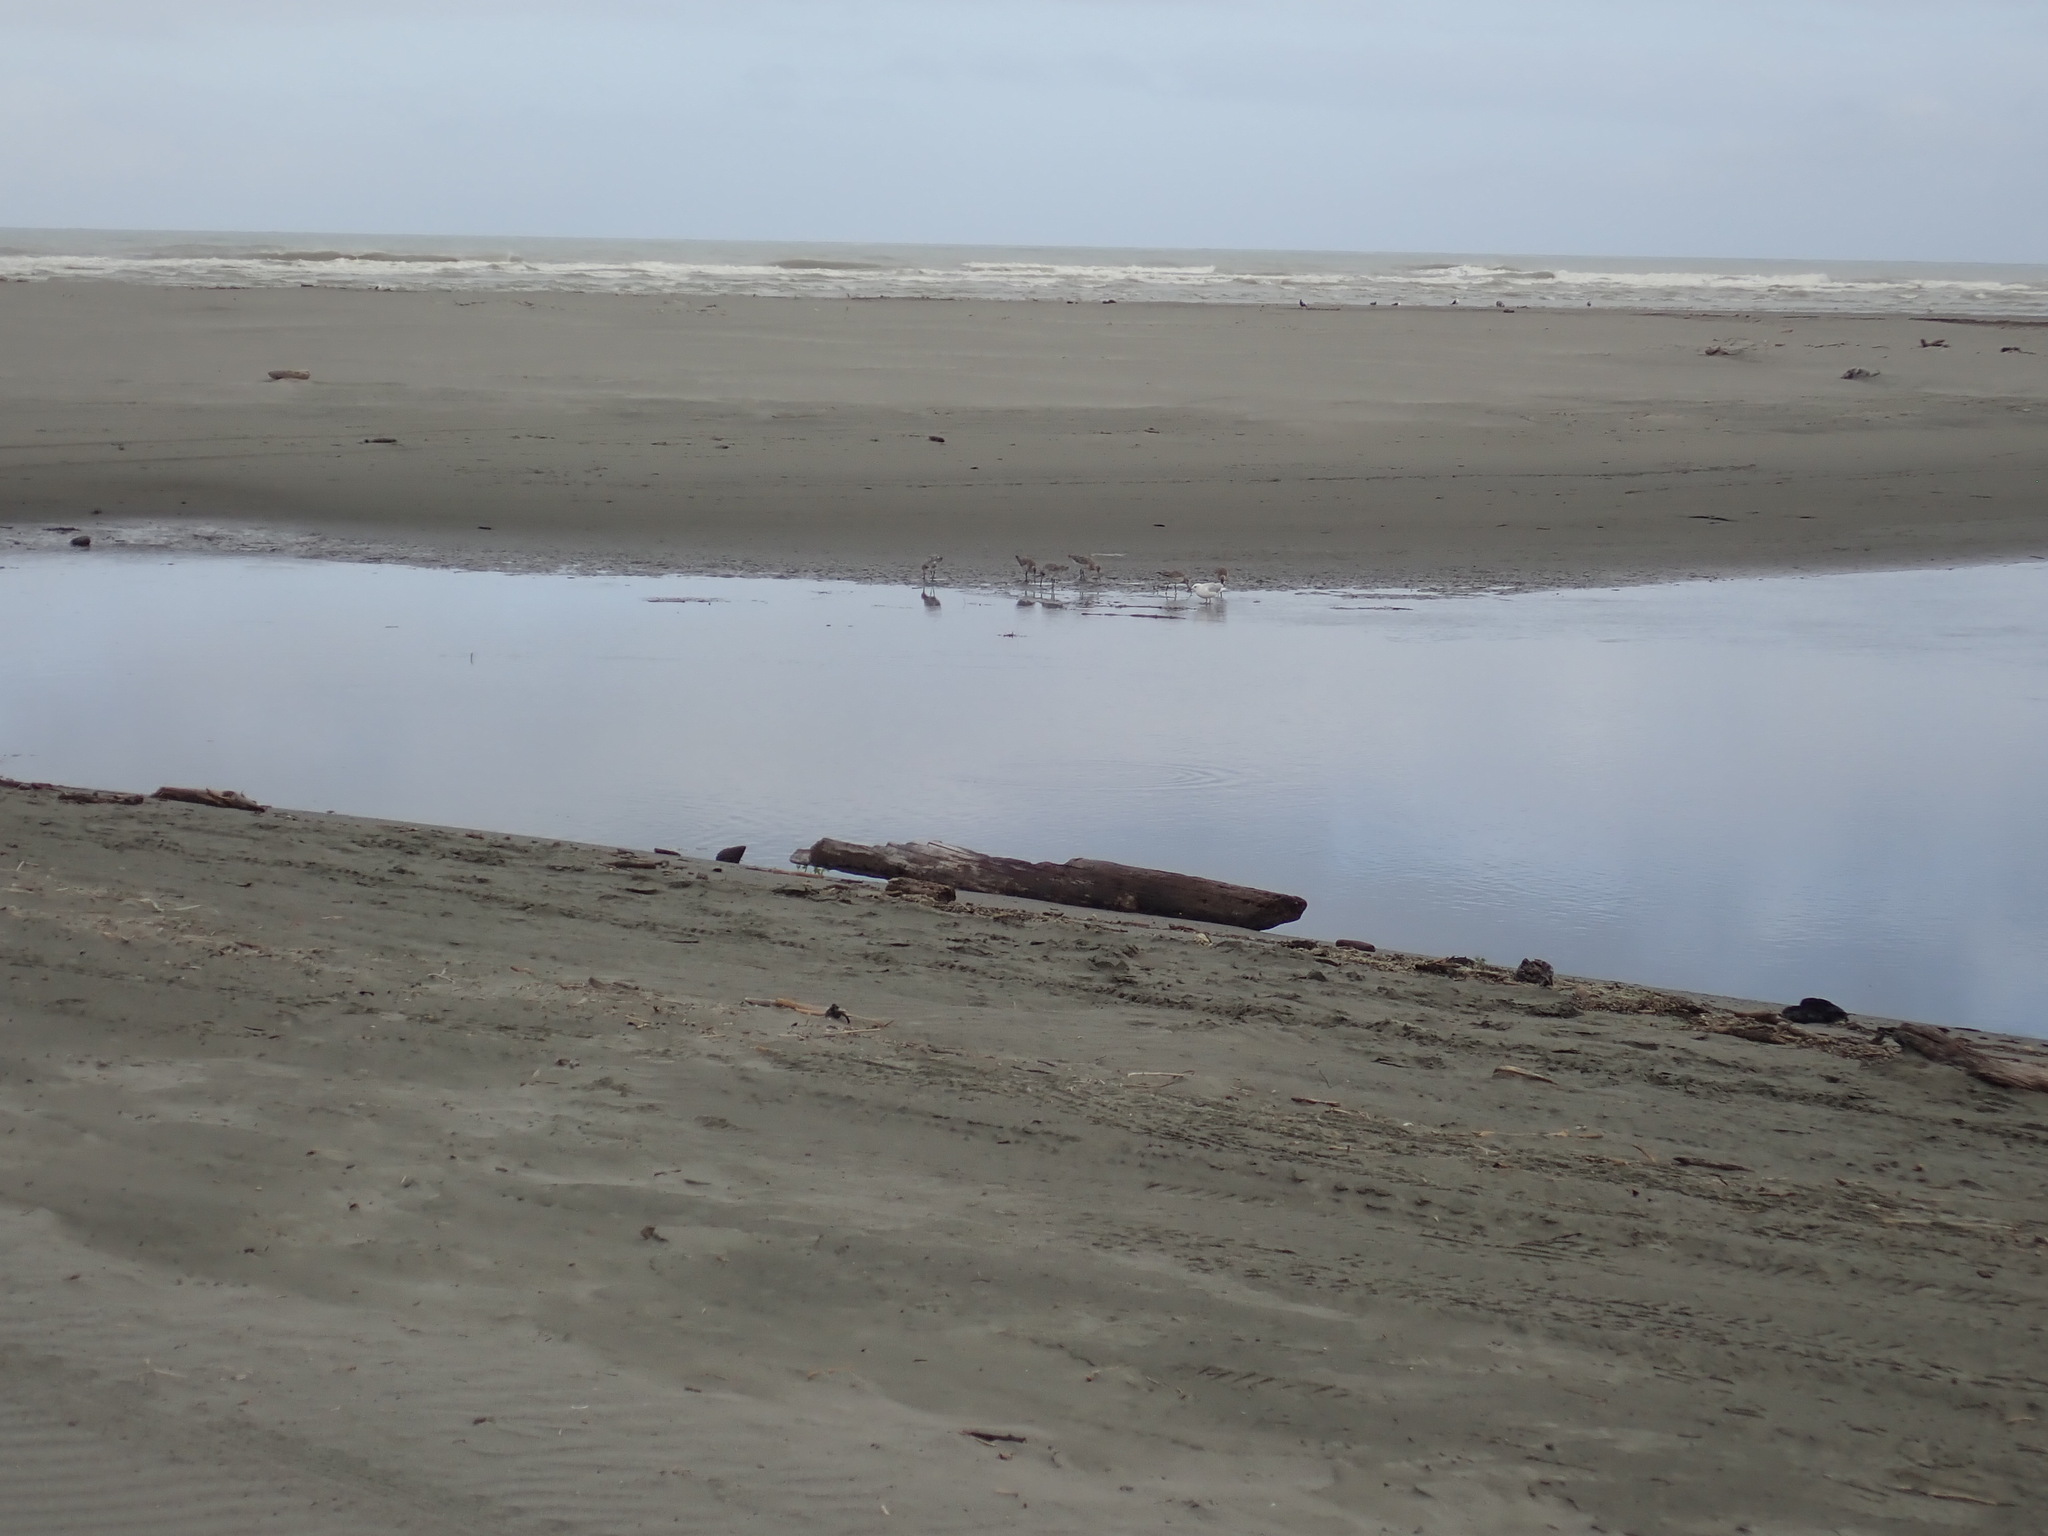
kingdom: Animalia
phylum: Chordata
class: Aves
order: Charadriiformes
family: Scolopacidae
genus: Limosa
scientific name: Limosa lapponica
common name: Bar-tailed godwit
